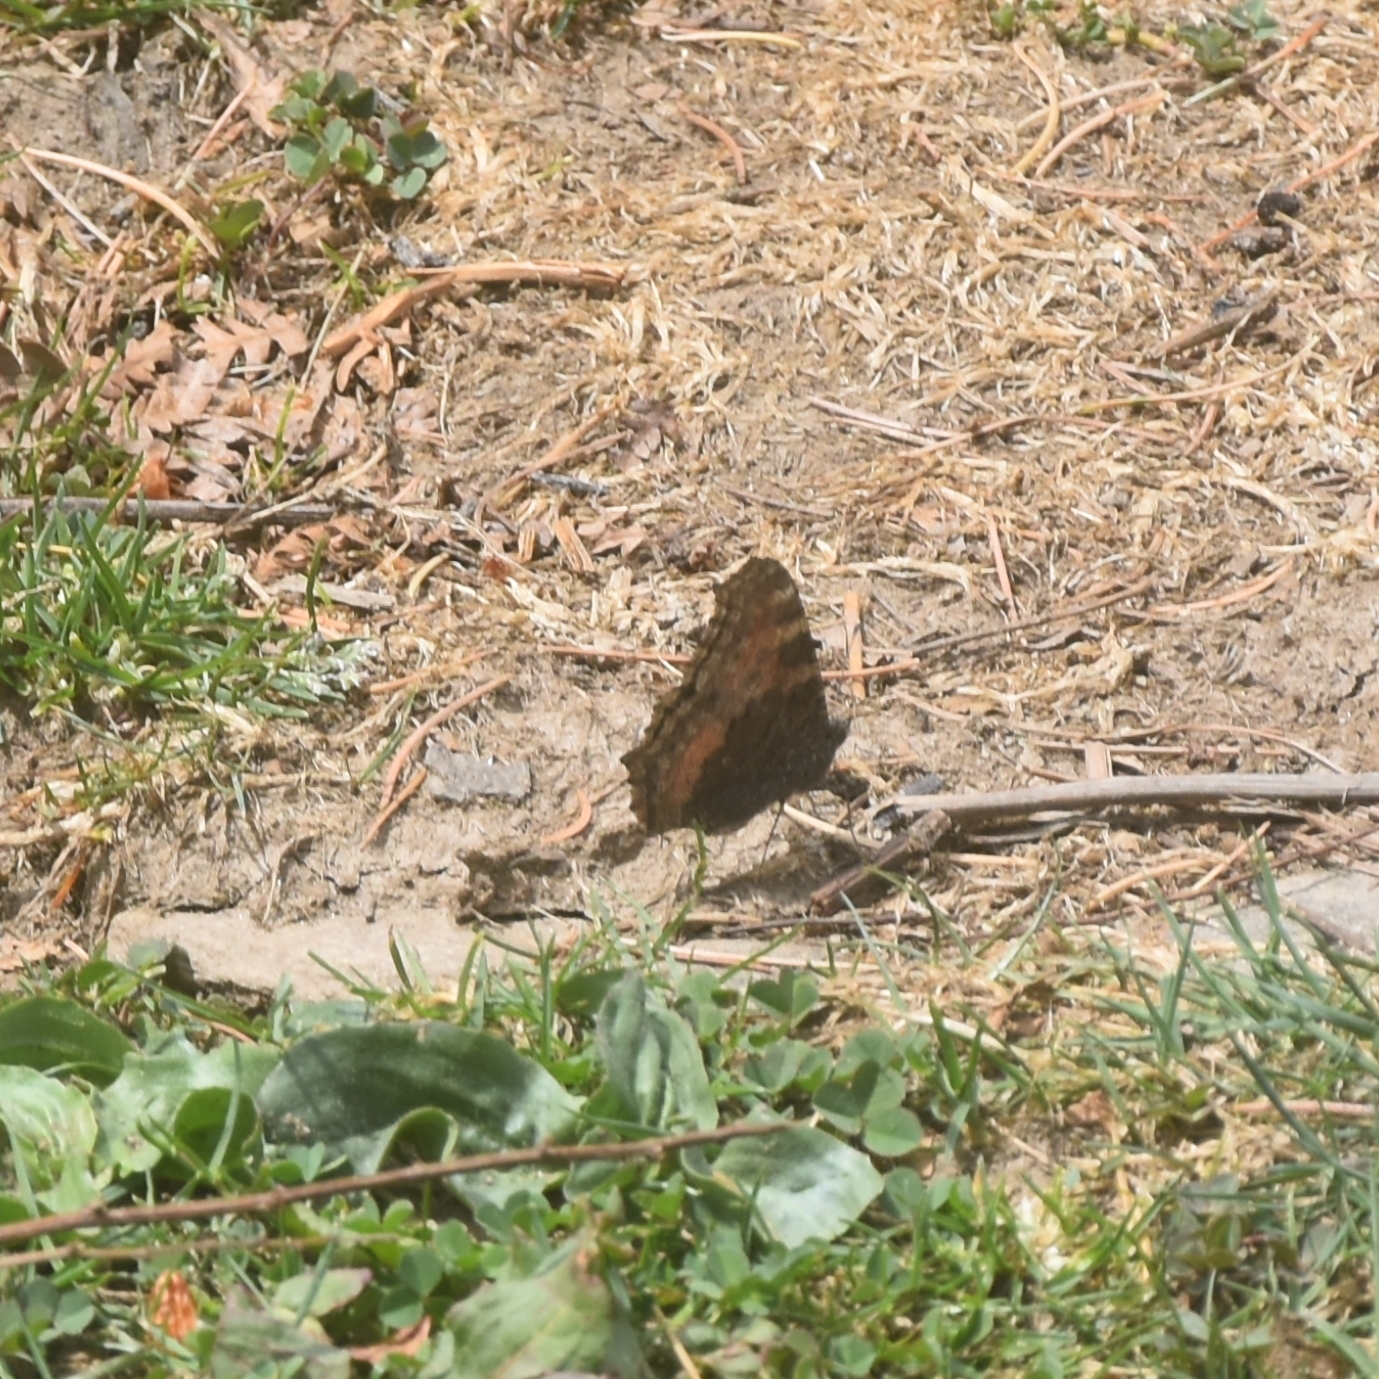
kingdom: Animalia
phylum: Arthropoda
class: Insecta
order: Lepidoptera
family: Nymphalidae
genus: Aglais
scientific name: Aglais caschmirensis
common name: Indian tortoiseshell
